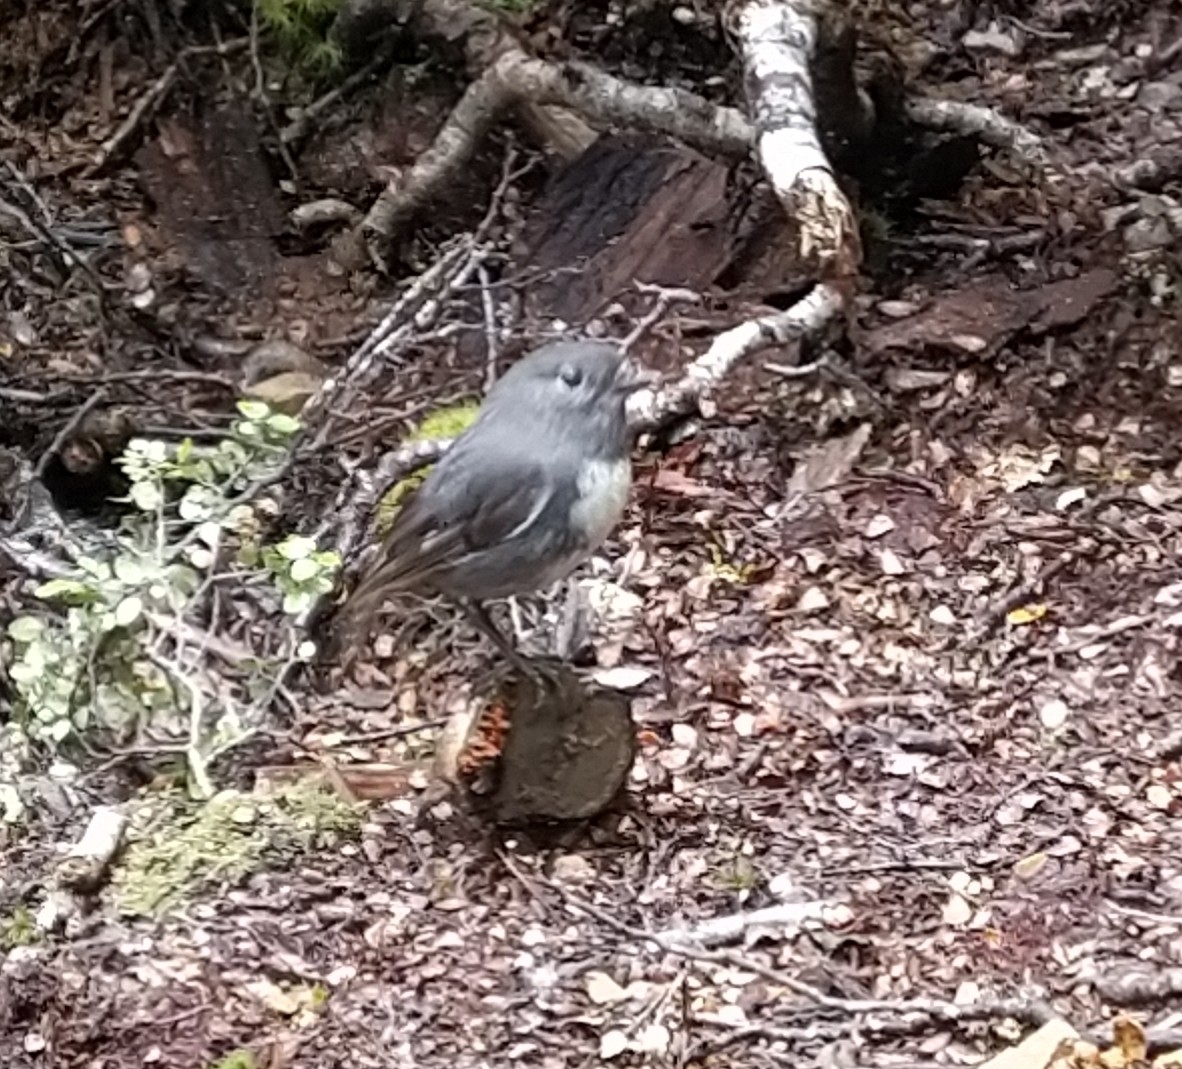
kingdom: Animalia
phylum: Chordata
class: Aves
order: Passeriformes
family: Petroicidae
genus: Petroica
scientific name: Petroica australis
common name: New zealand robin
